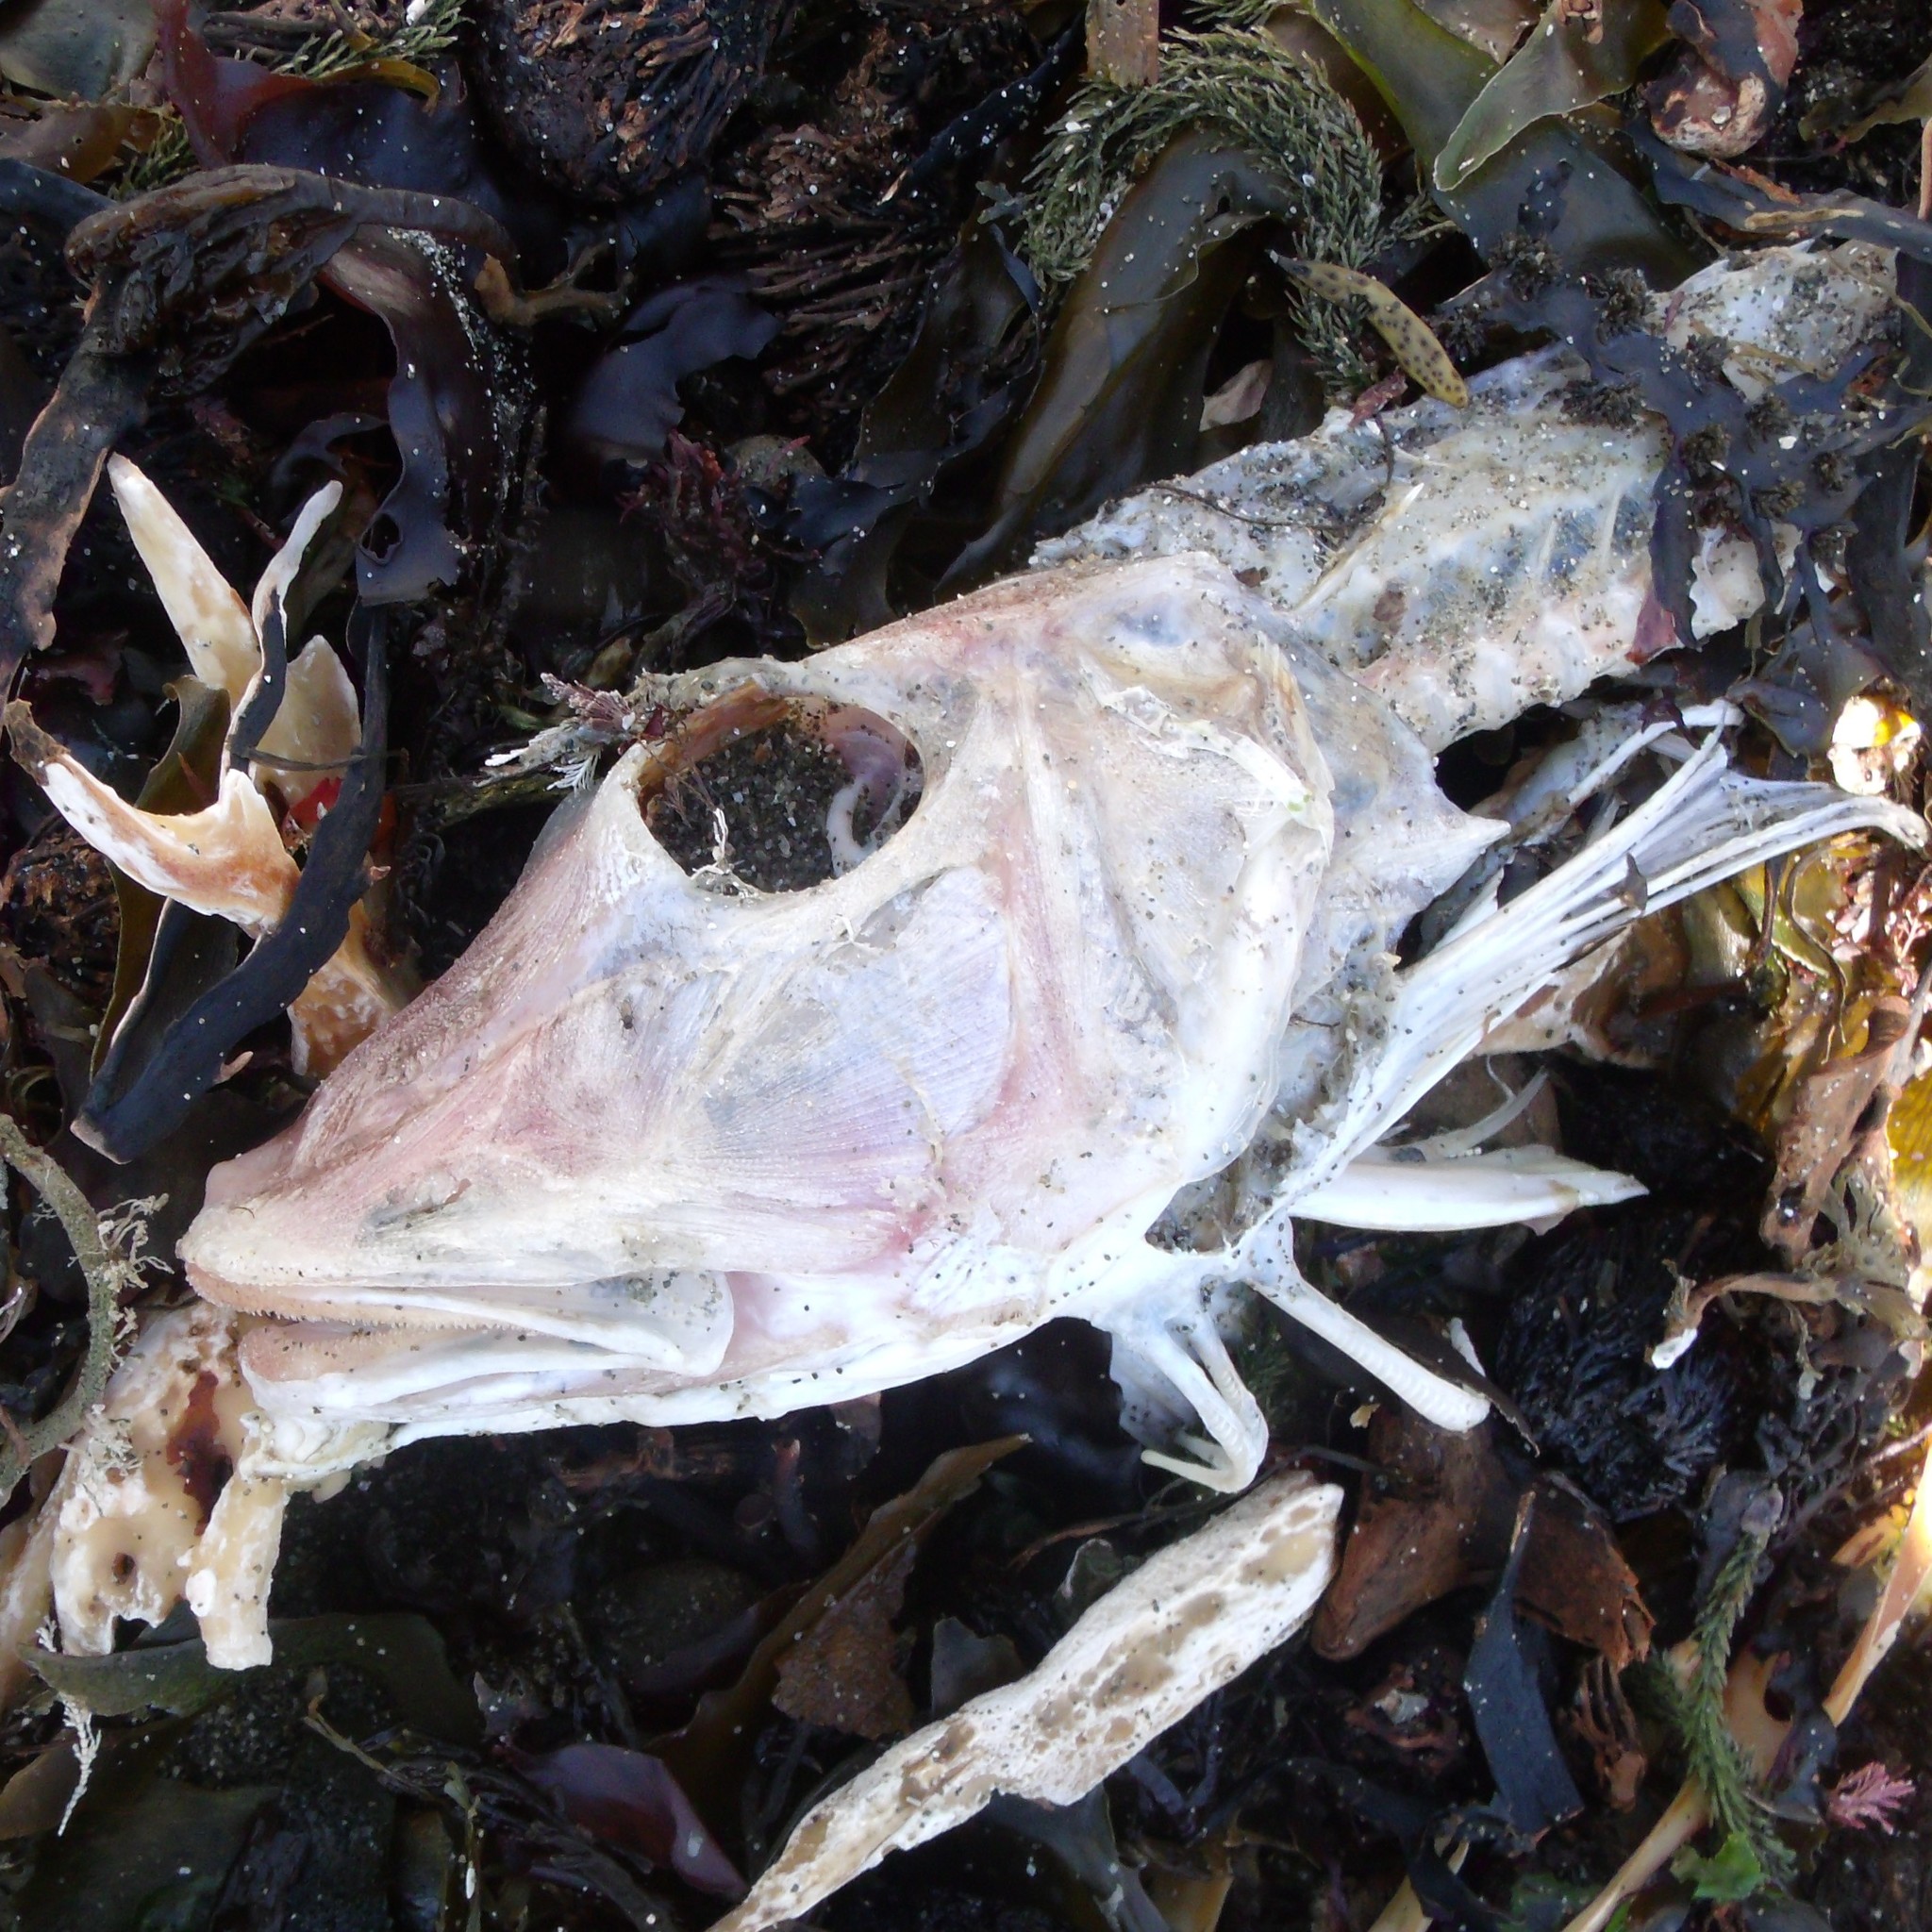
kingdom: Animalia
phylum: Chordata
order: Scorpaeniformes
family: Triglidae
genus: Chelidonichthys
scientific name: Chelidonichthys kumu
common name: Bluefin gurnard
